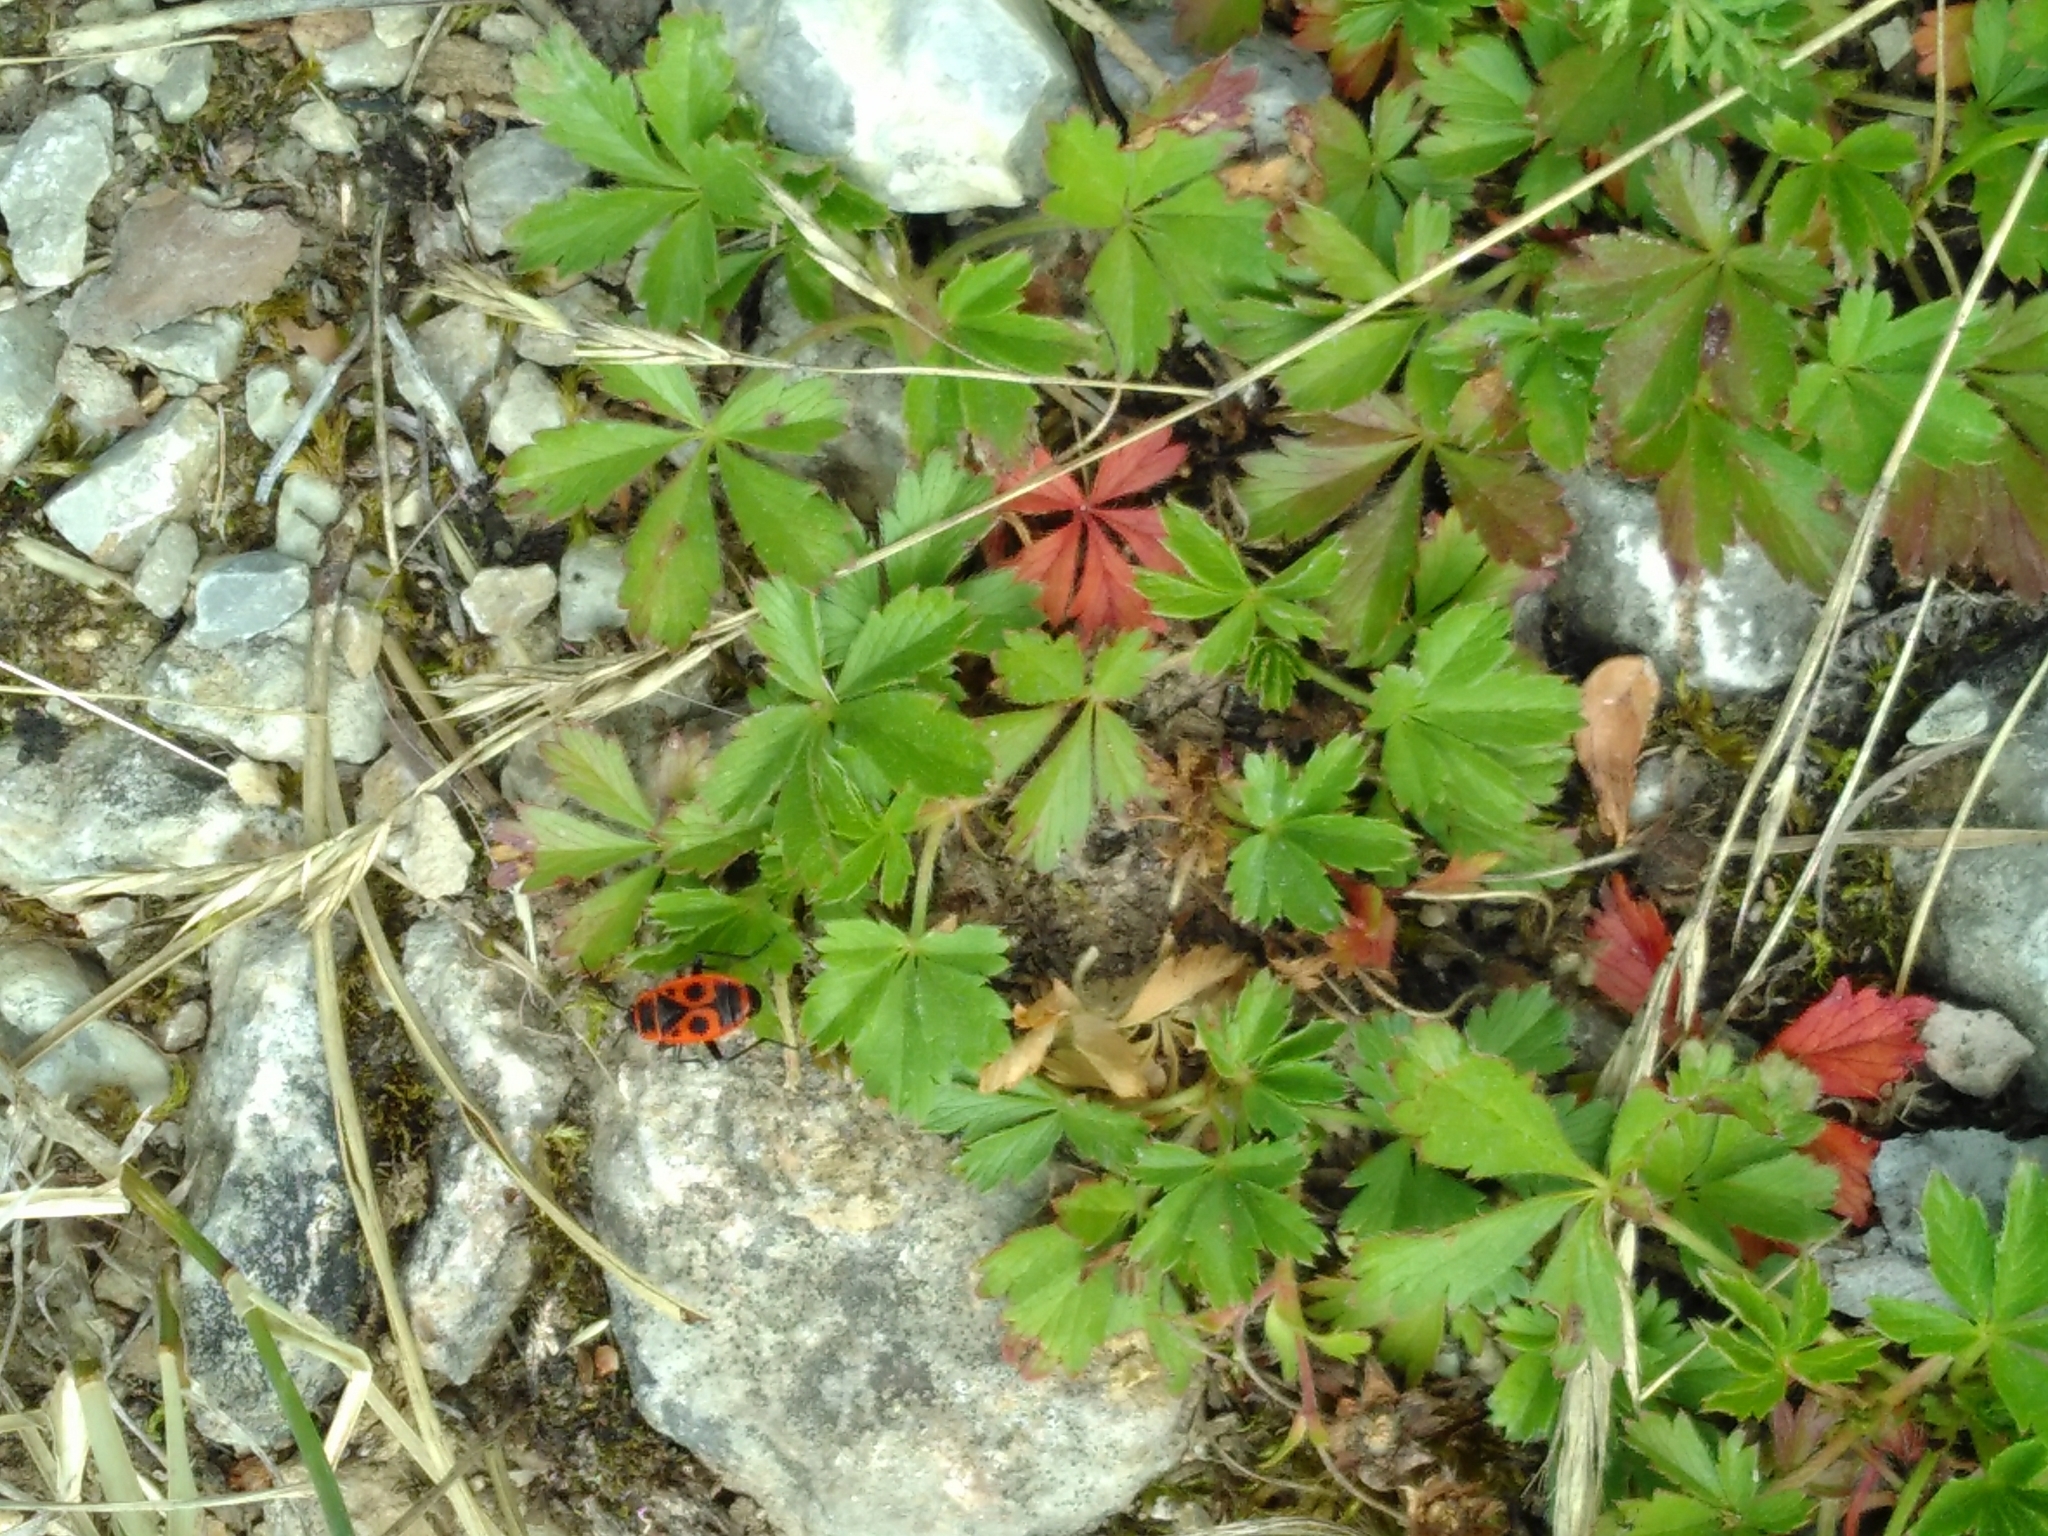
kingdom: Animalia
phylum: Arthropoda
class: Insecta
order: Hemiptera
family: Pyrrhocoridae
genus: Pyrrhocoris
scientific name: Pyrrhocoris apterus
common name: Firebug
